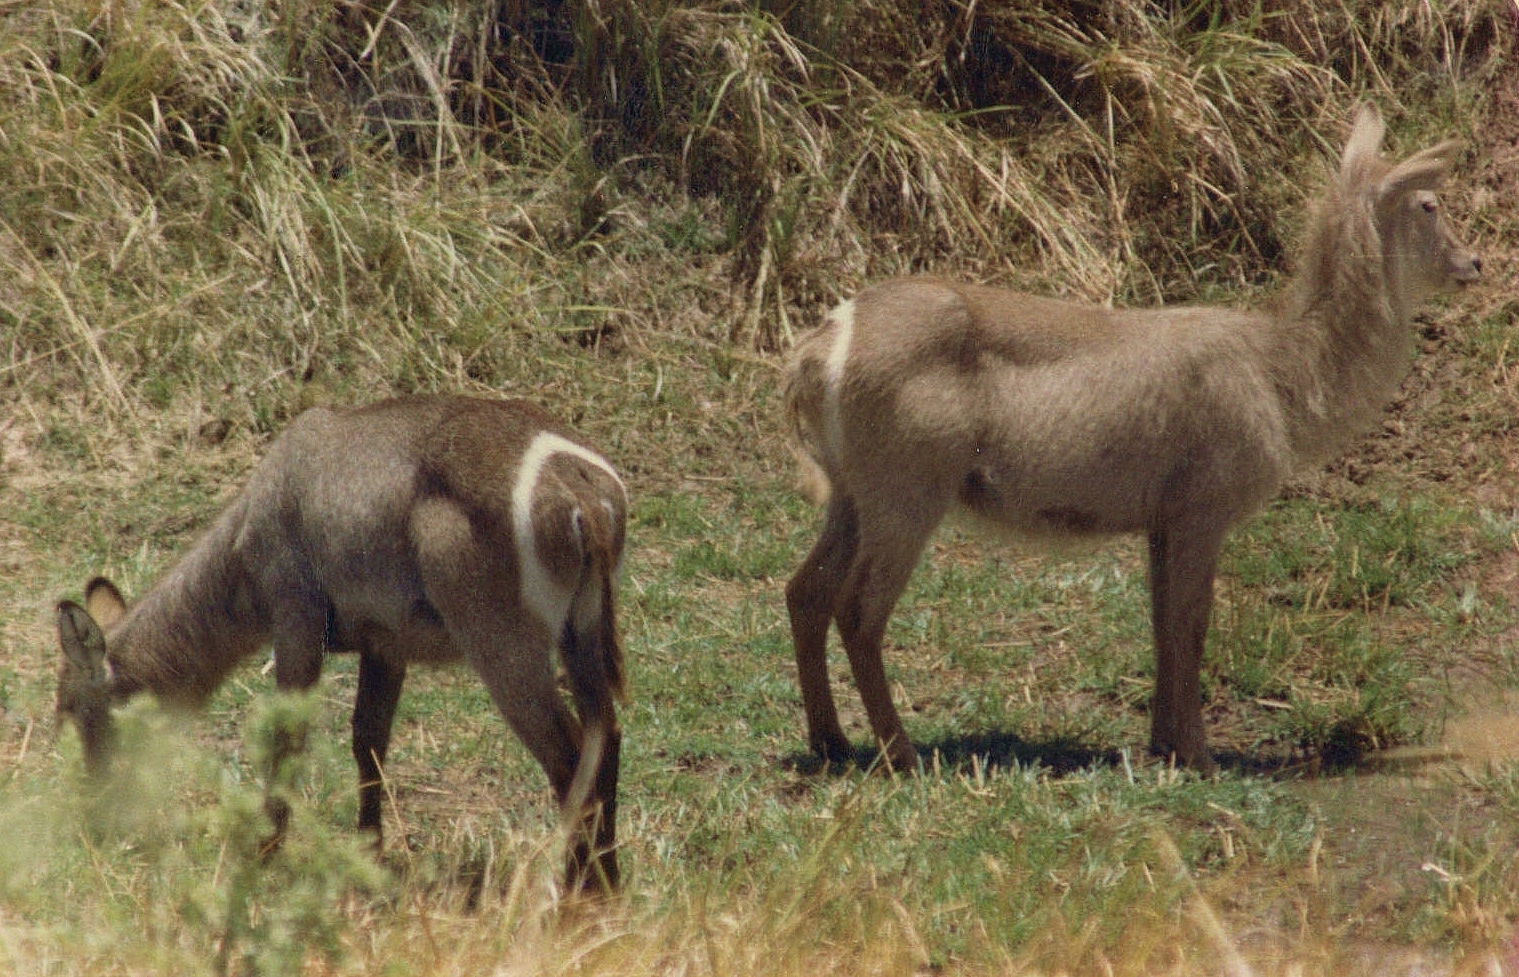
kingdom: Animalia
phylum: Chordata
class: Mammalia
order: Artiodactyla
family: Bovidae
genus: Kobus
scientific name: Kobus ellipsiprymnus
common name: Waterbuck
